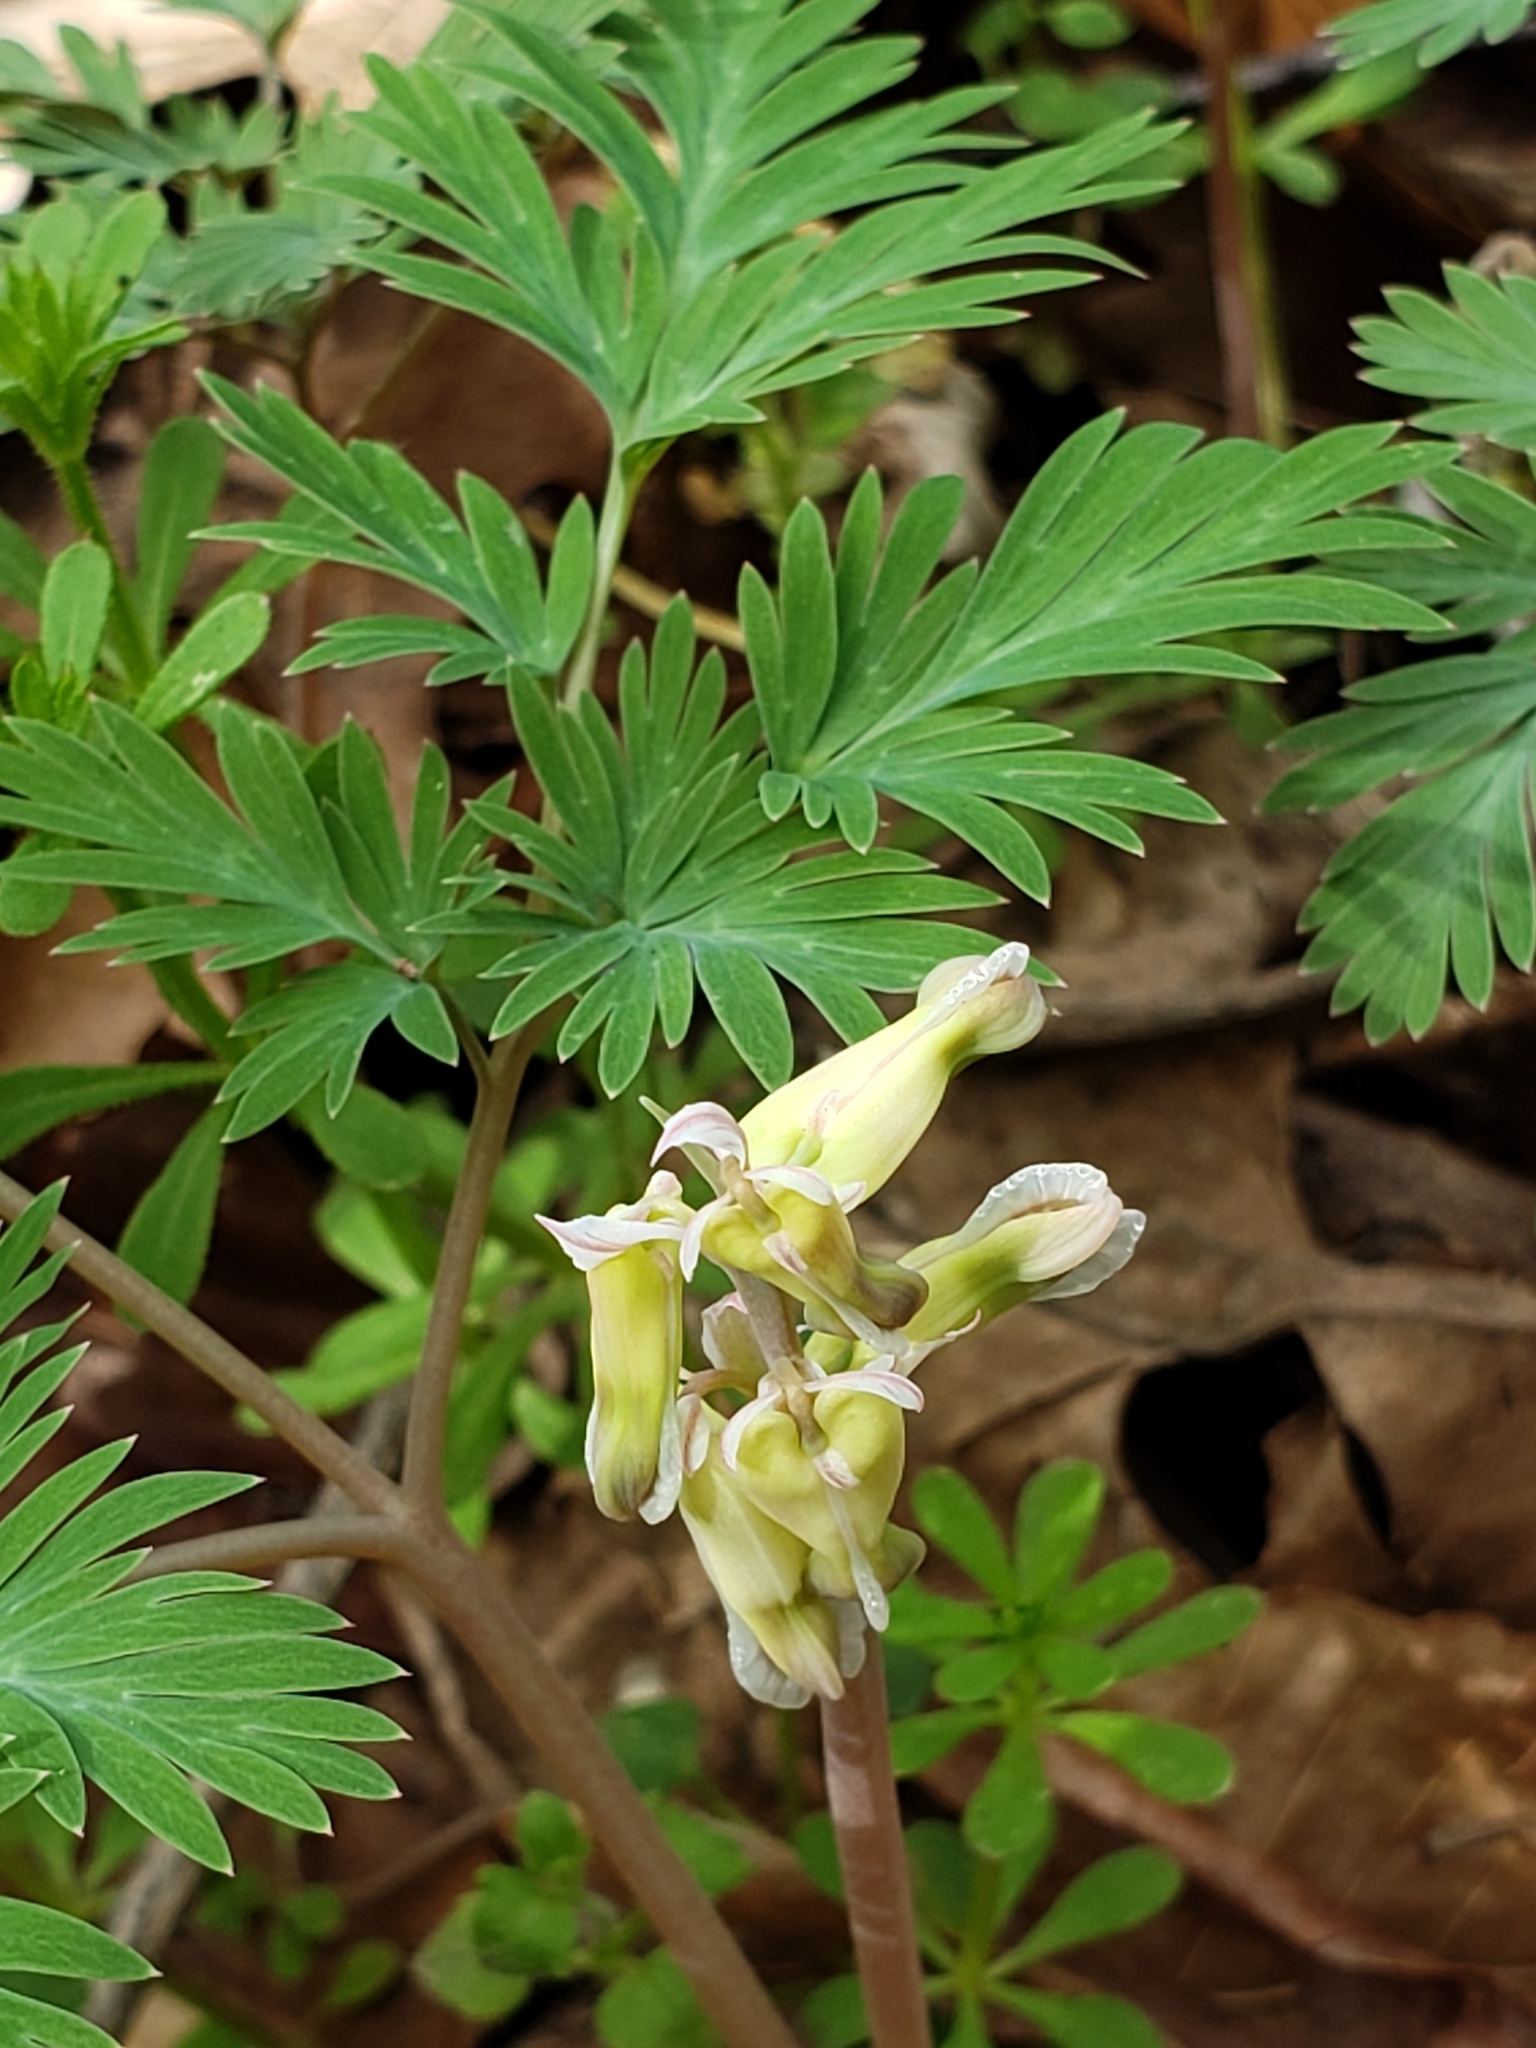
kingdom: Plantae
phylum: Tracheophyta
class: Magnoliopsida
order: Ranunculales
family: Papaveraceae
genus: Dicentra
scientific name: Dicentra canadensis
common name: Squirrel-corn
